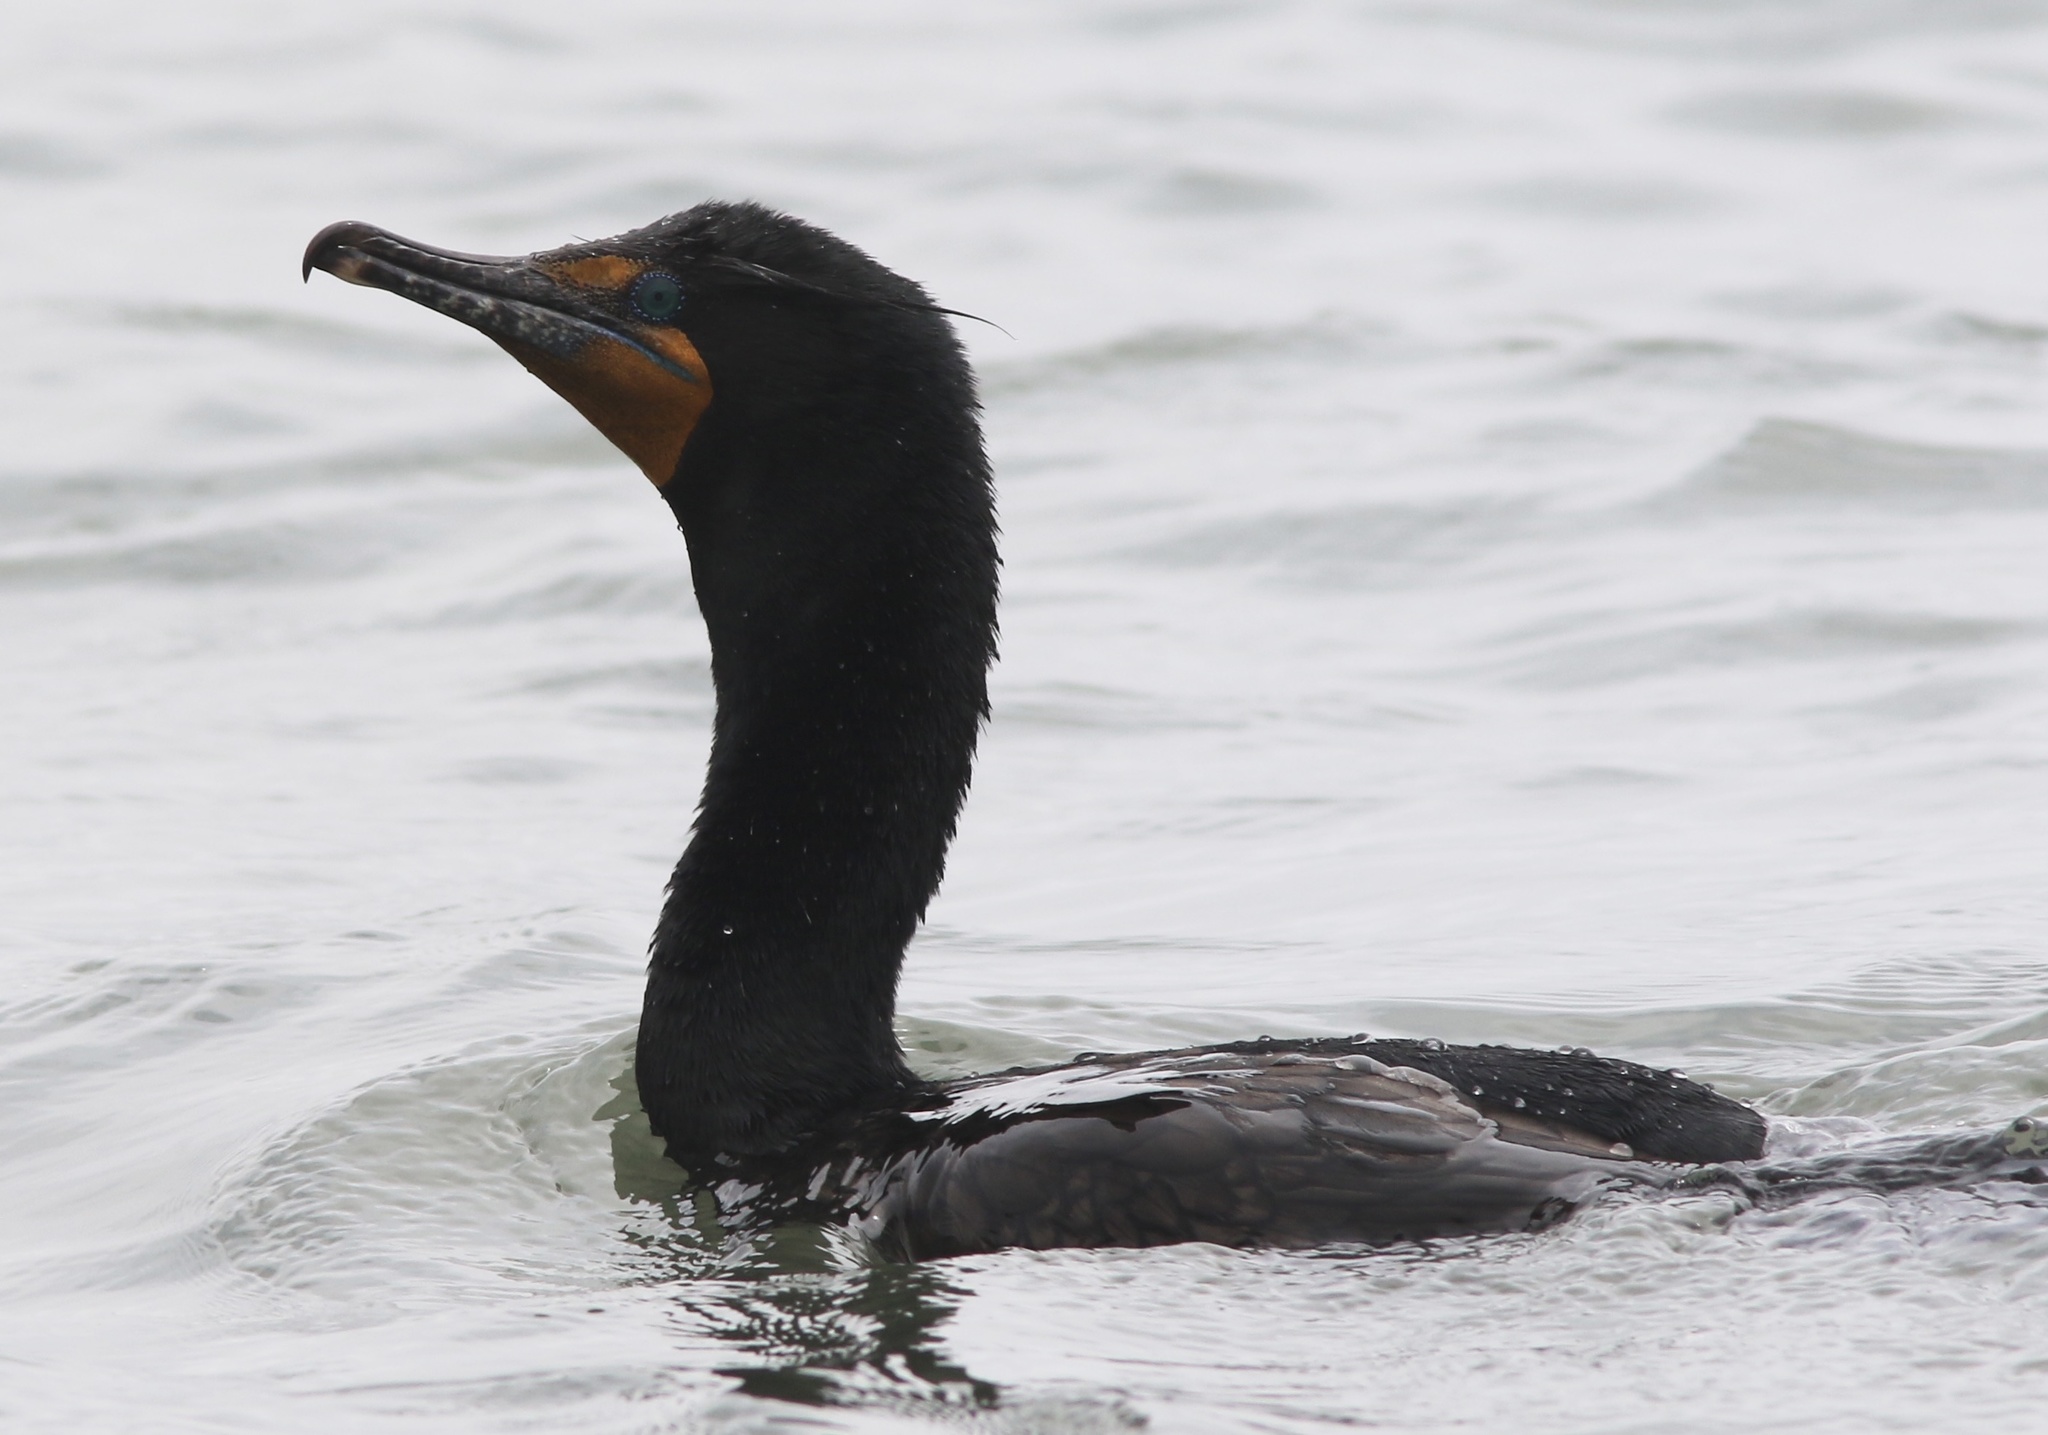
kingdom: Animalia
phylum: Chordata
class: Aves
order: Suliformes
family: Phalacrocoracidae
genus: Phalacrocorax
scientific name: Phalacrocorax auritus
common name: Double-crested cormorant
